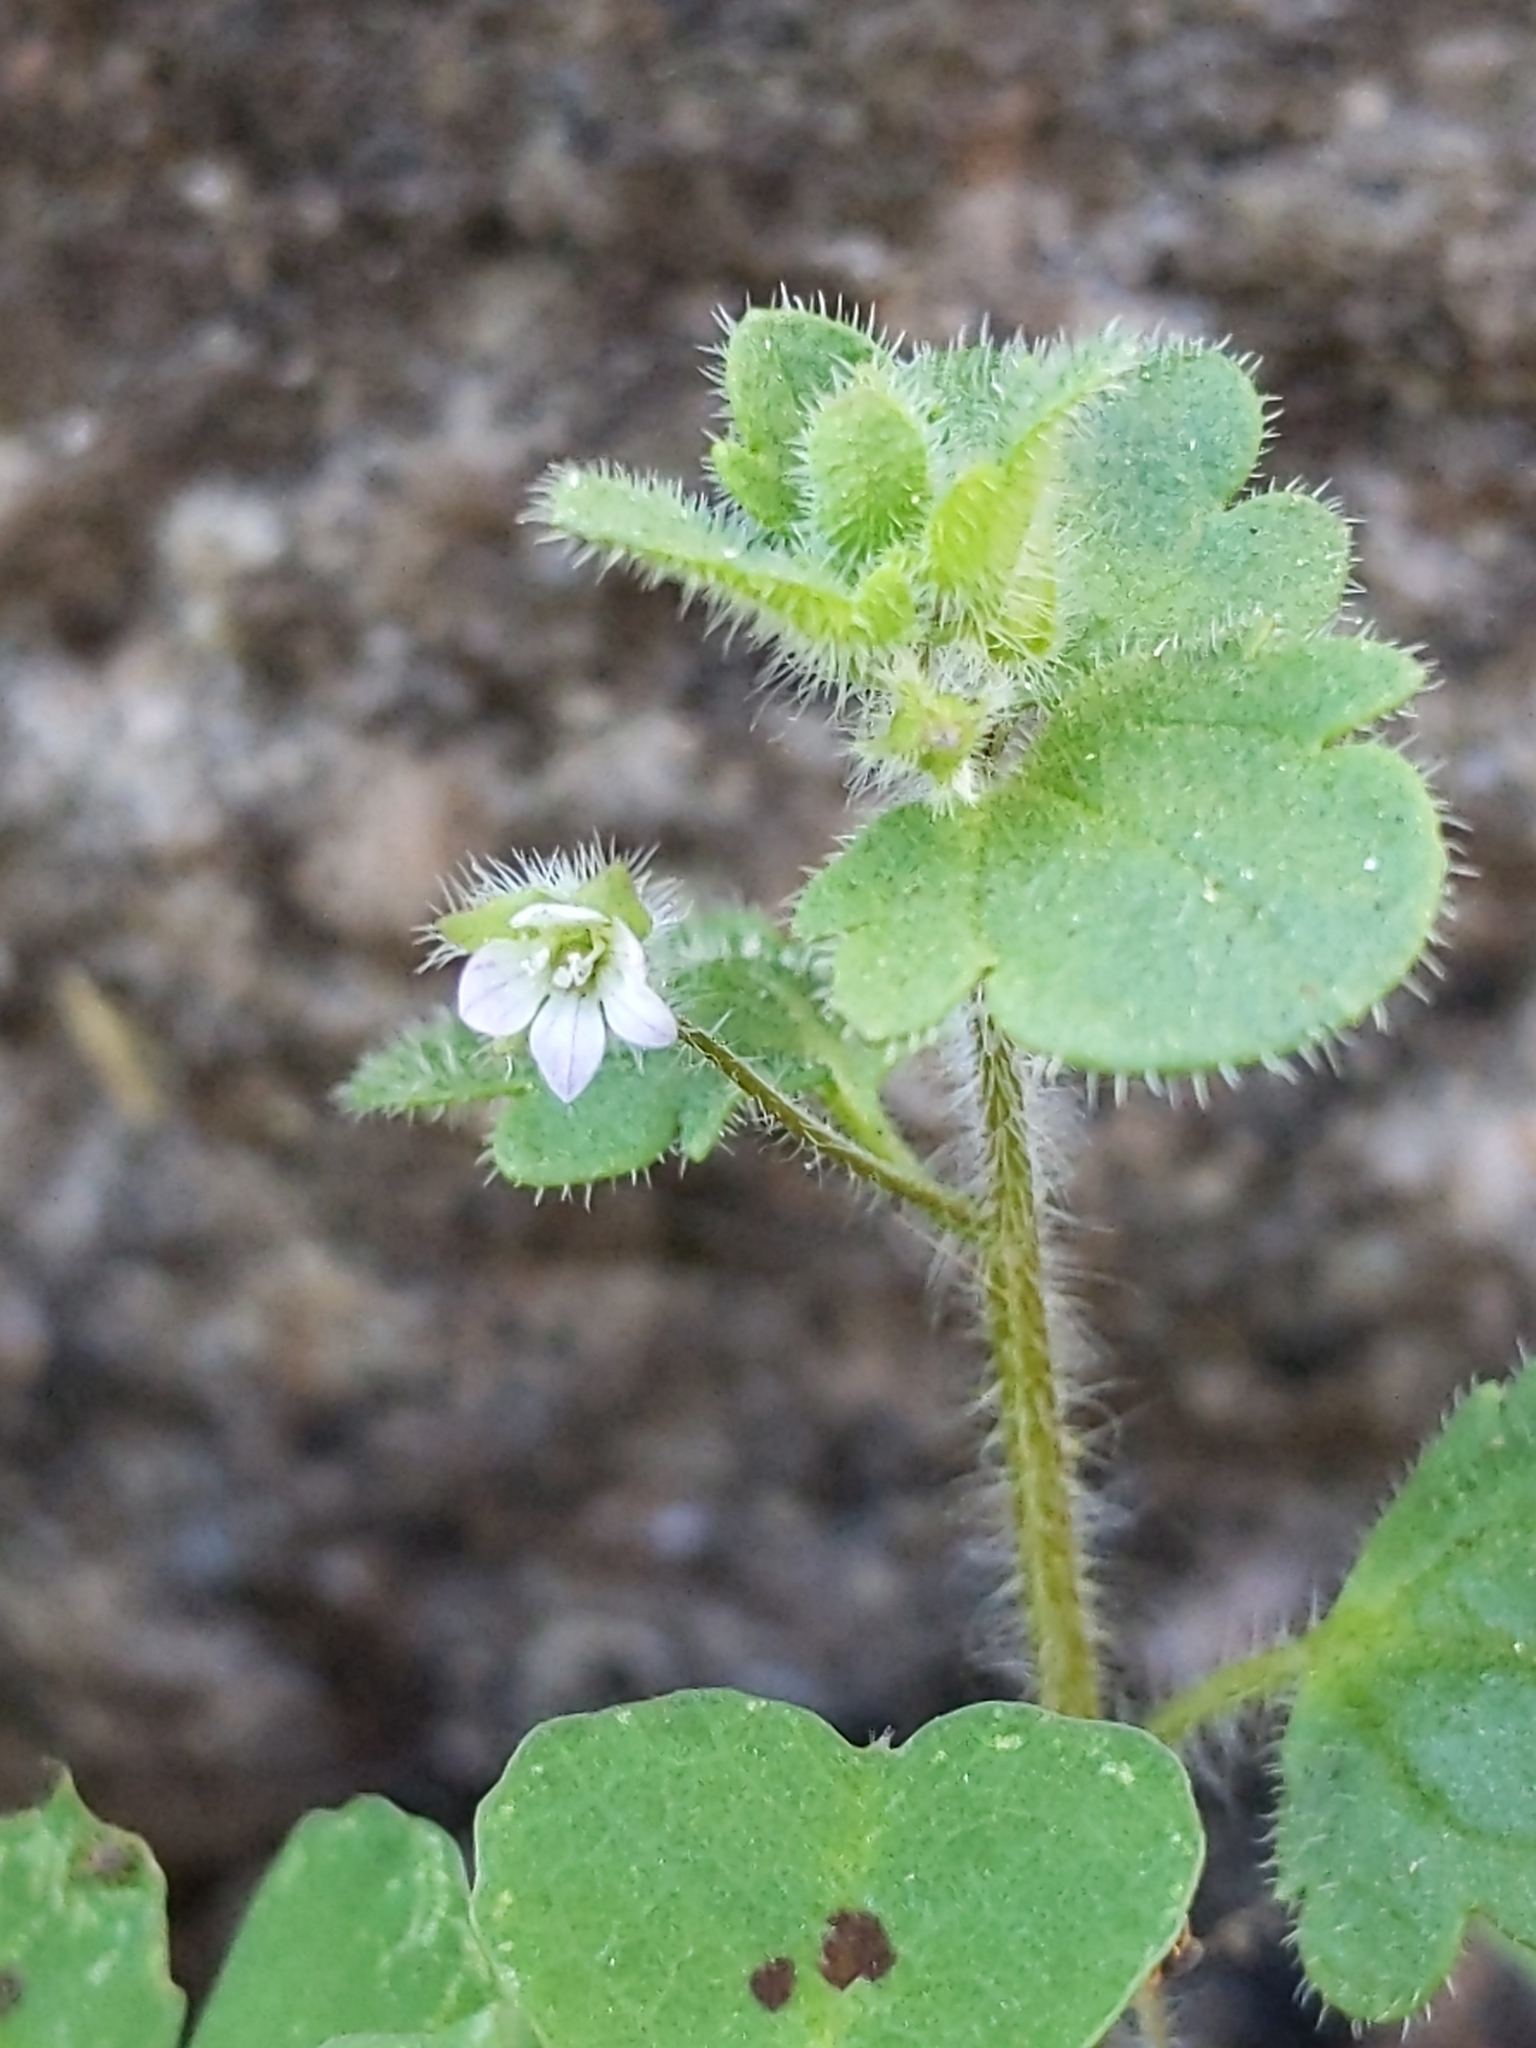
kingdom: Plantae
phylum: Tracheophyta
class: Magnoliopsida
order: Lamiales
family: Plantaginaceae
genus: Veronica
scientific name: Veronica sublobata
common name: False ivy-leaved speedwell
